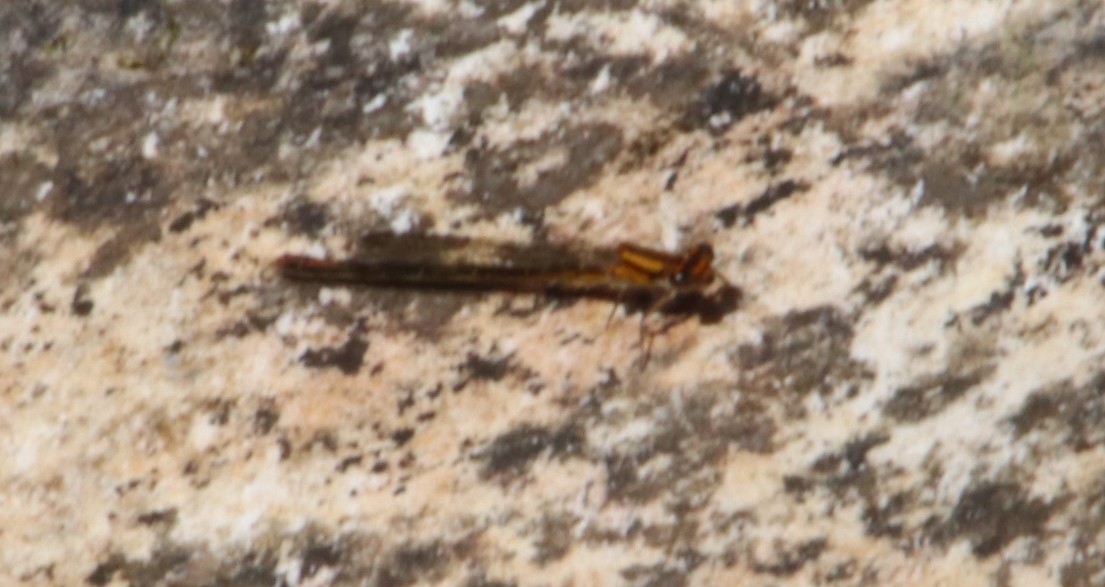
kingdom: Animalia
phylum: Arthropoda
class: Insecta
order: Odonata
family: Coenagrionidae
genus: Pseudagrion
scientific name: Pseudagrion furcigerum
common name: Palmiet sprite
